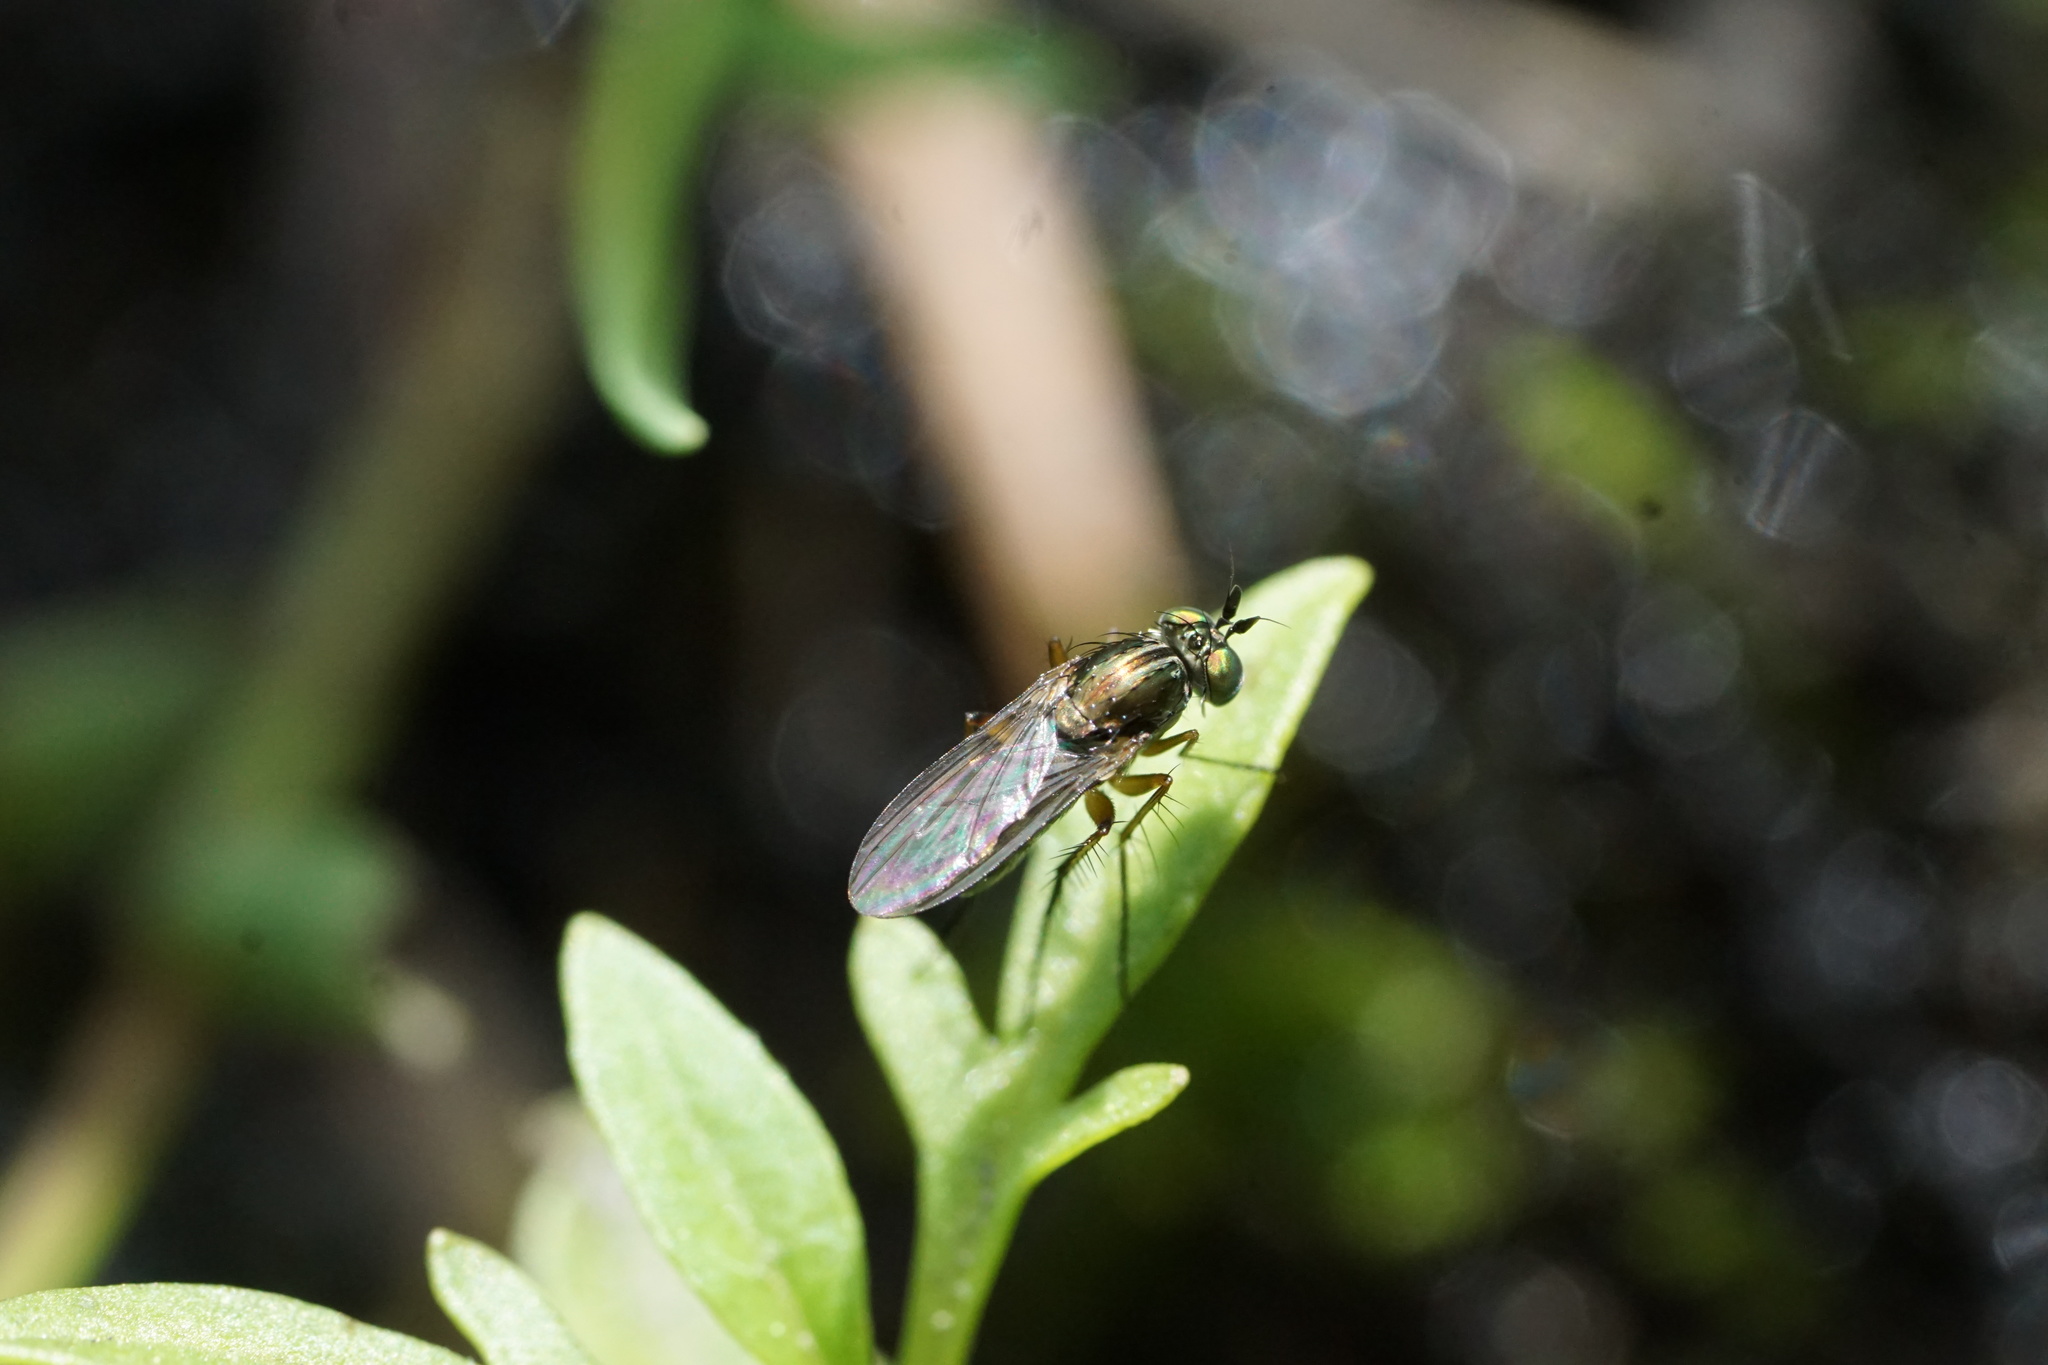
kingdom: Animalia
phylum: Arthropoda
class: Insecta
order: Diptera
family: Dolichopodidae
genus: Dolichopus
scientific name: Dolichopus comatus
